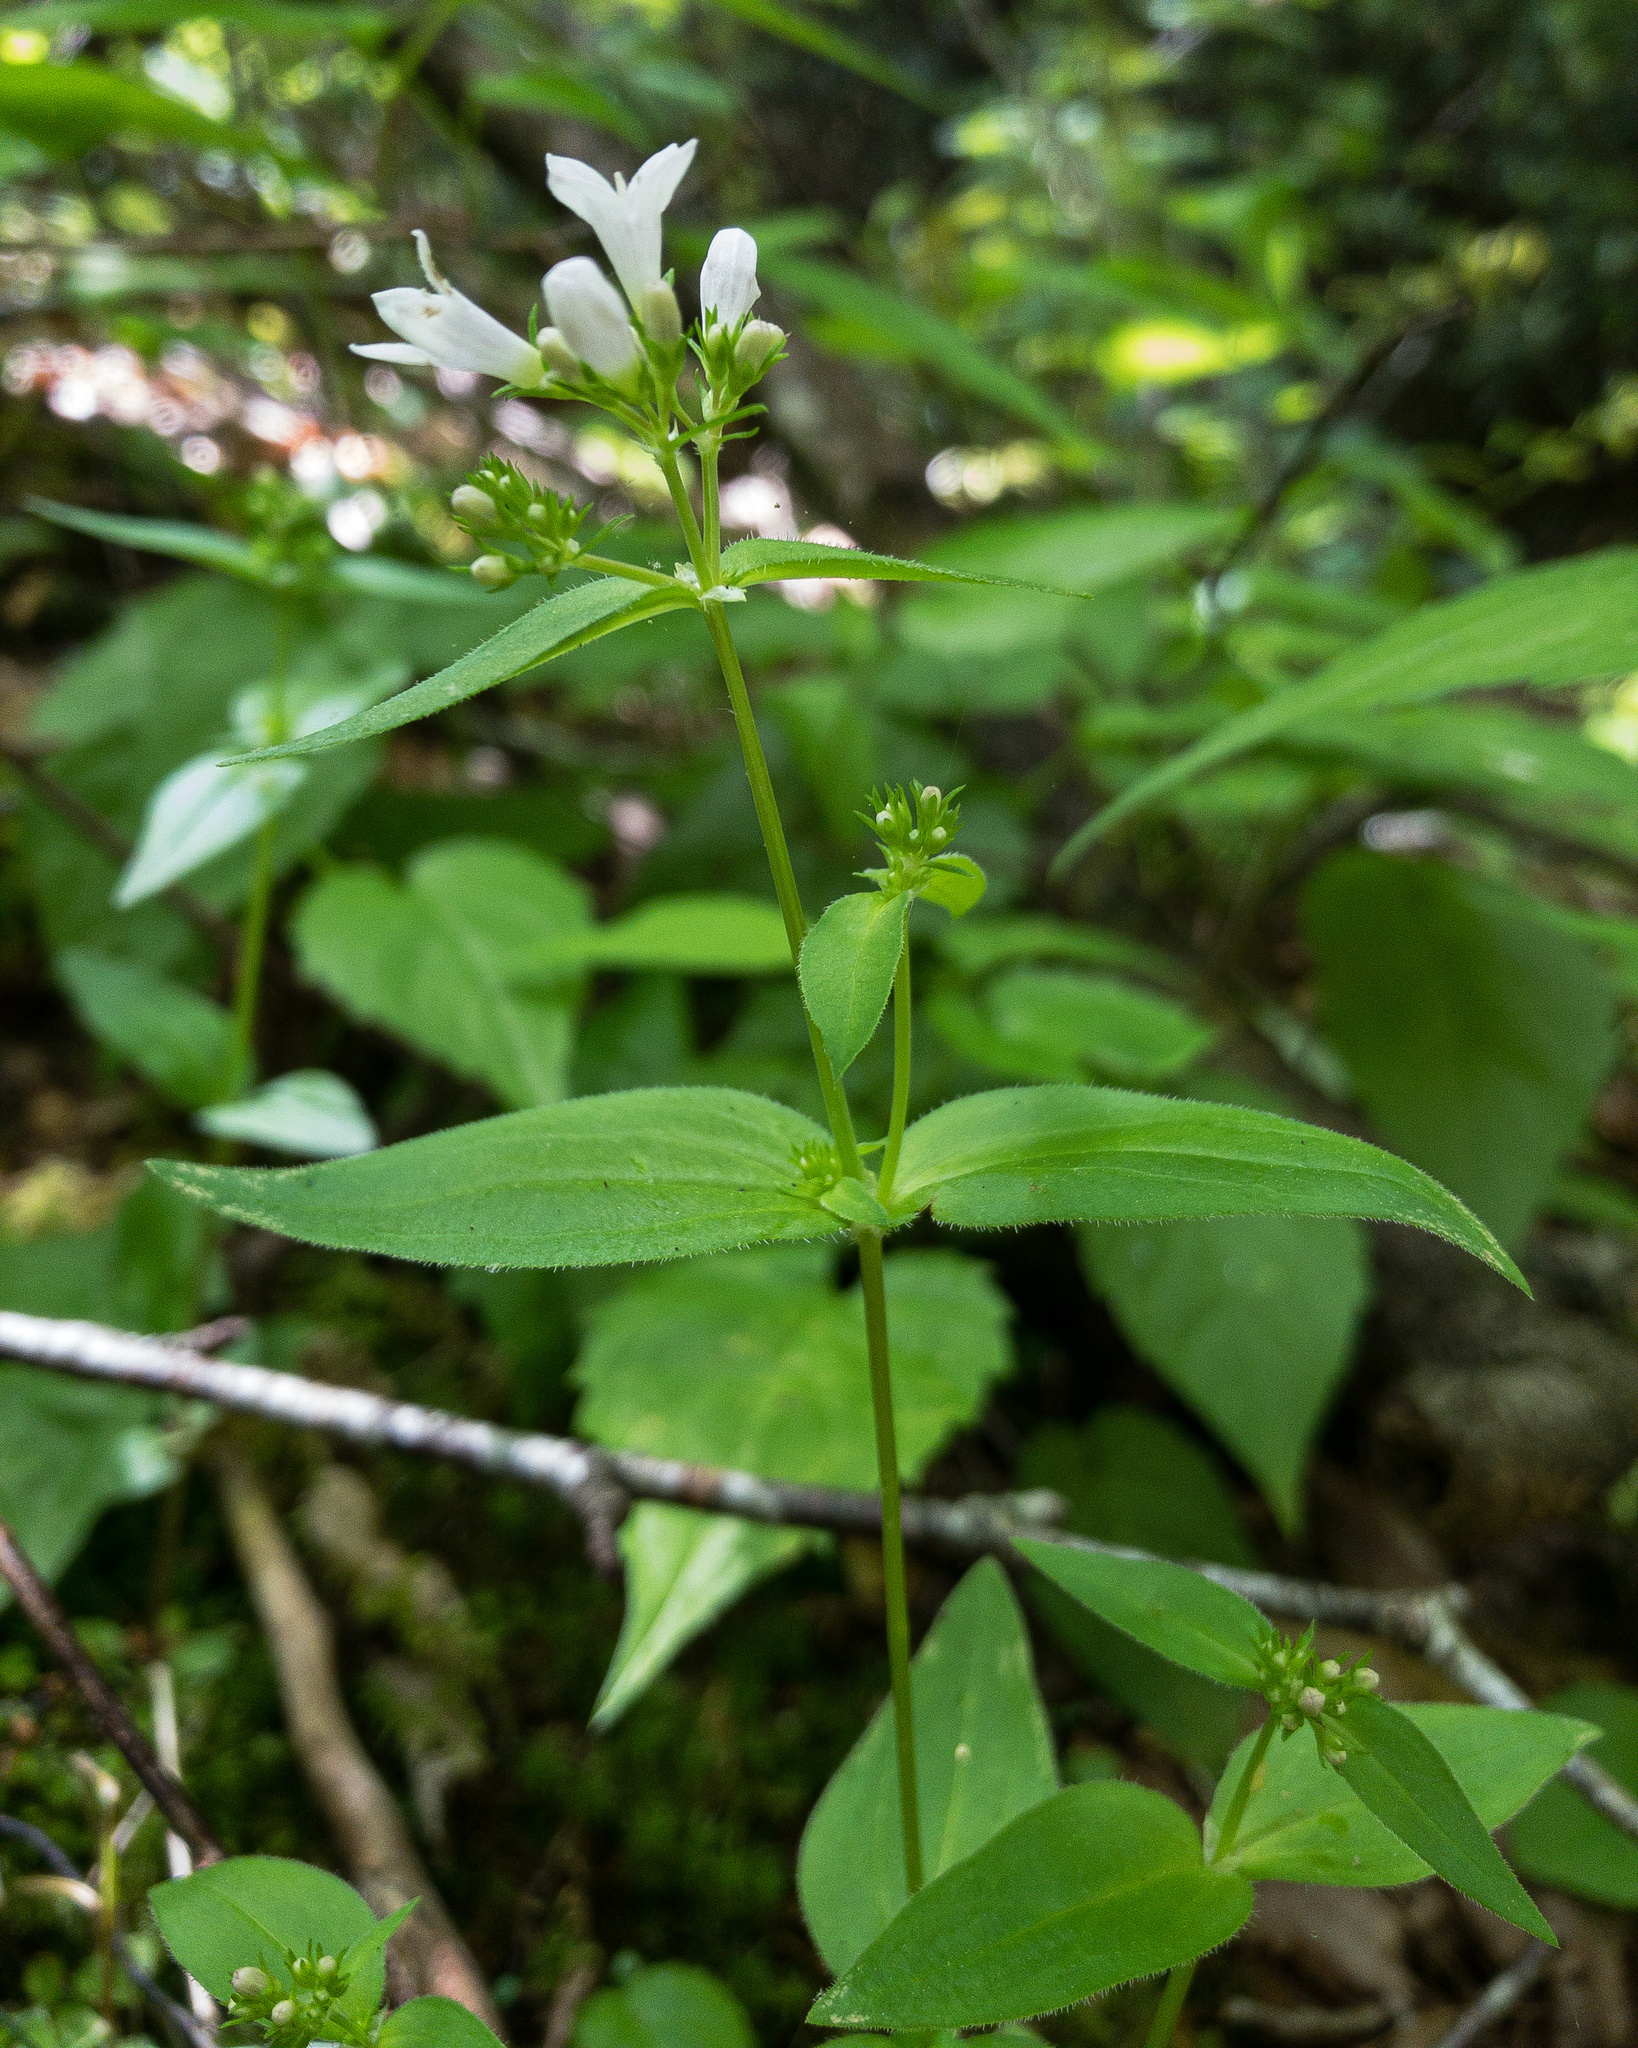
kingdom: Plantae
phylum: Tracheophyta
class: Magnoliopsida
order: Gentianales
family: Rubiaceae
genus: Houstonia
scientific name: Houstonia purpurea
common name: Summer bluet
